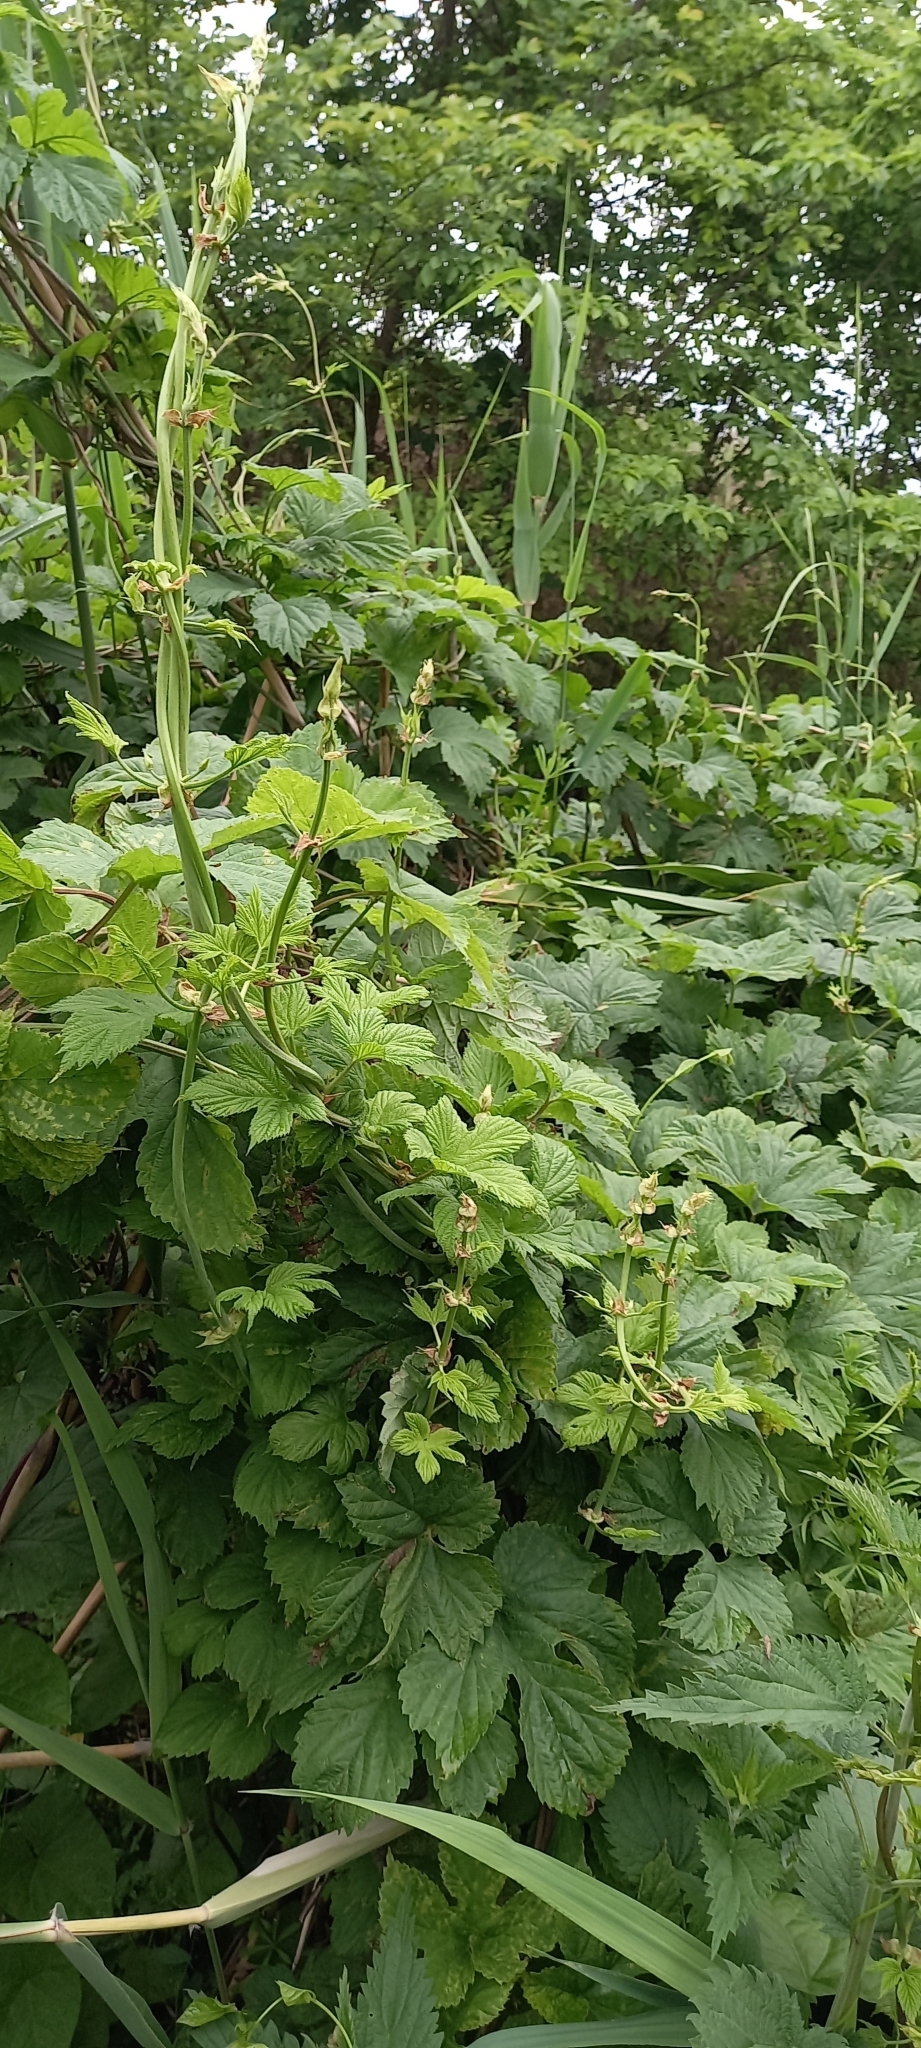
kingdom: Plantae
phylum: Tracheophyta
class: Magnoliopsida
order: Rosales
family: Cannabaceae
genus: Humulus
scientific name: Humulus lupulus
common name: Hop
